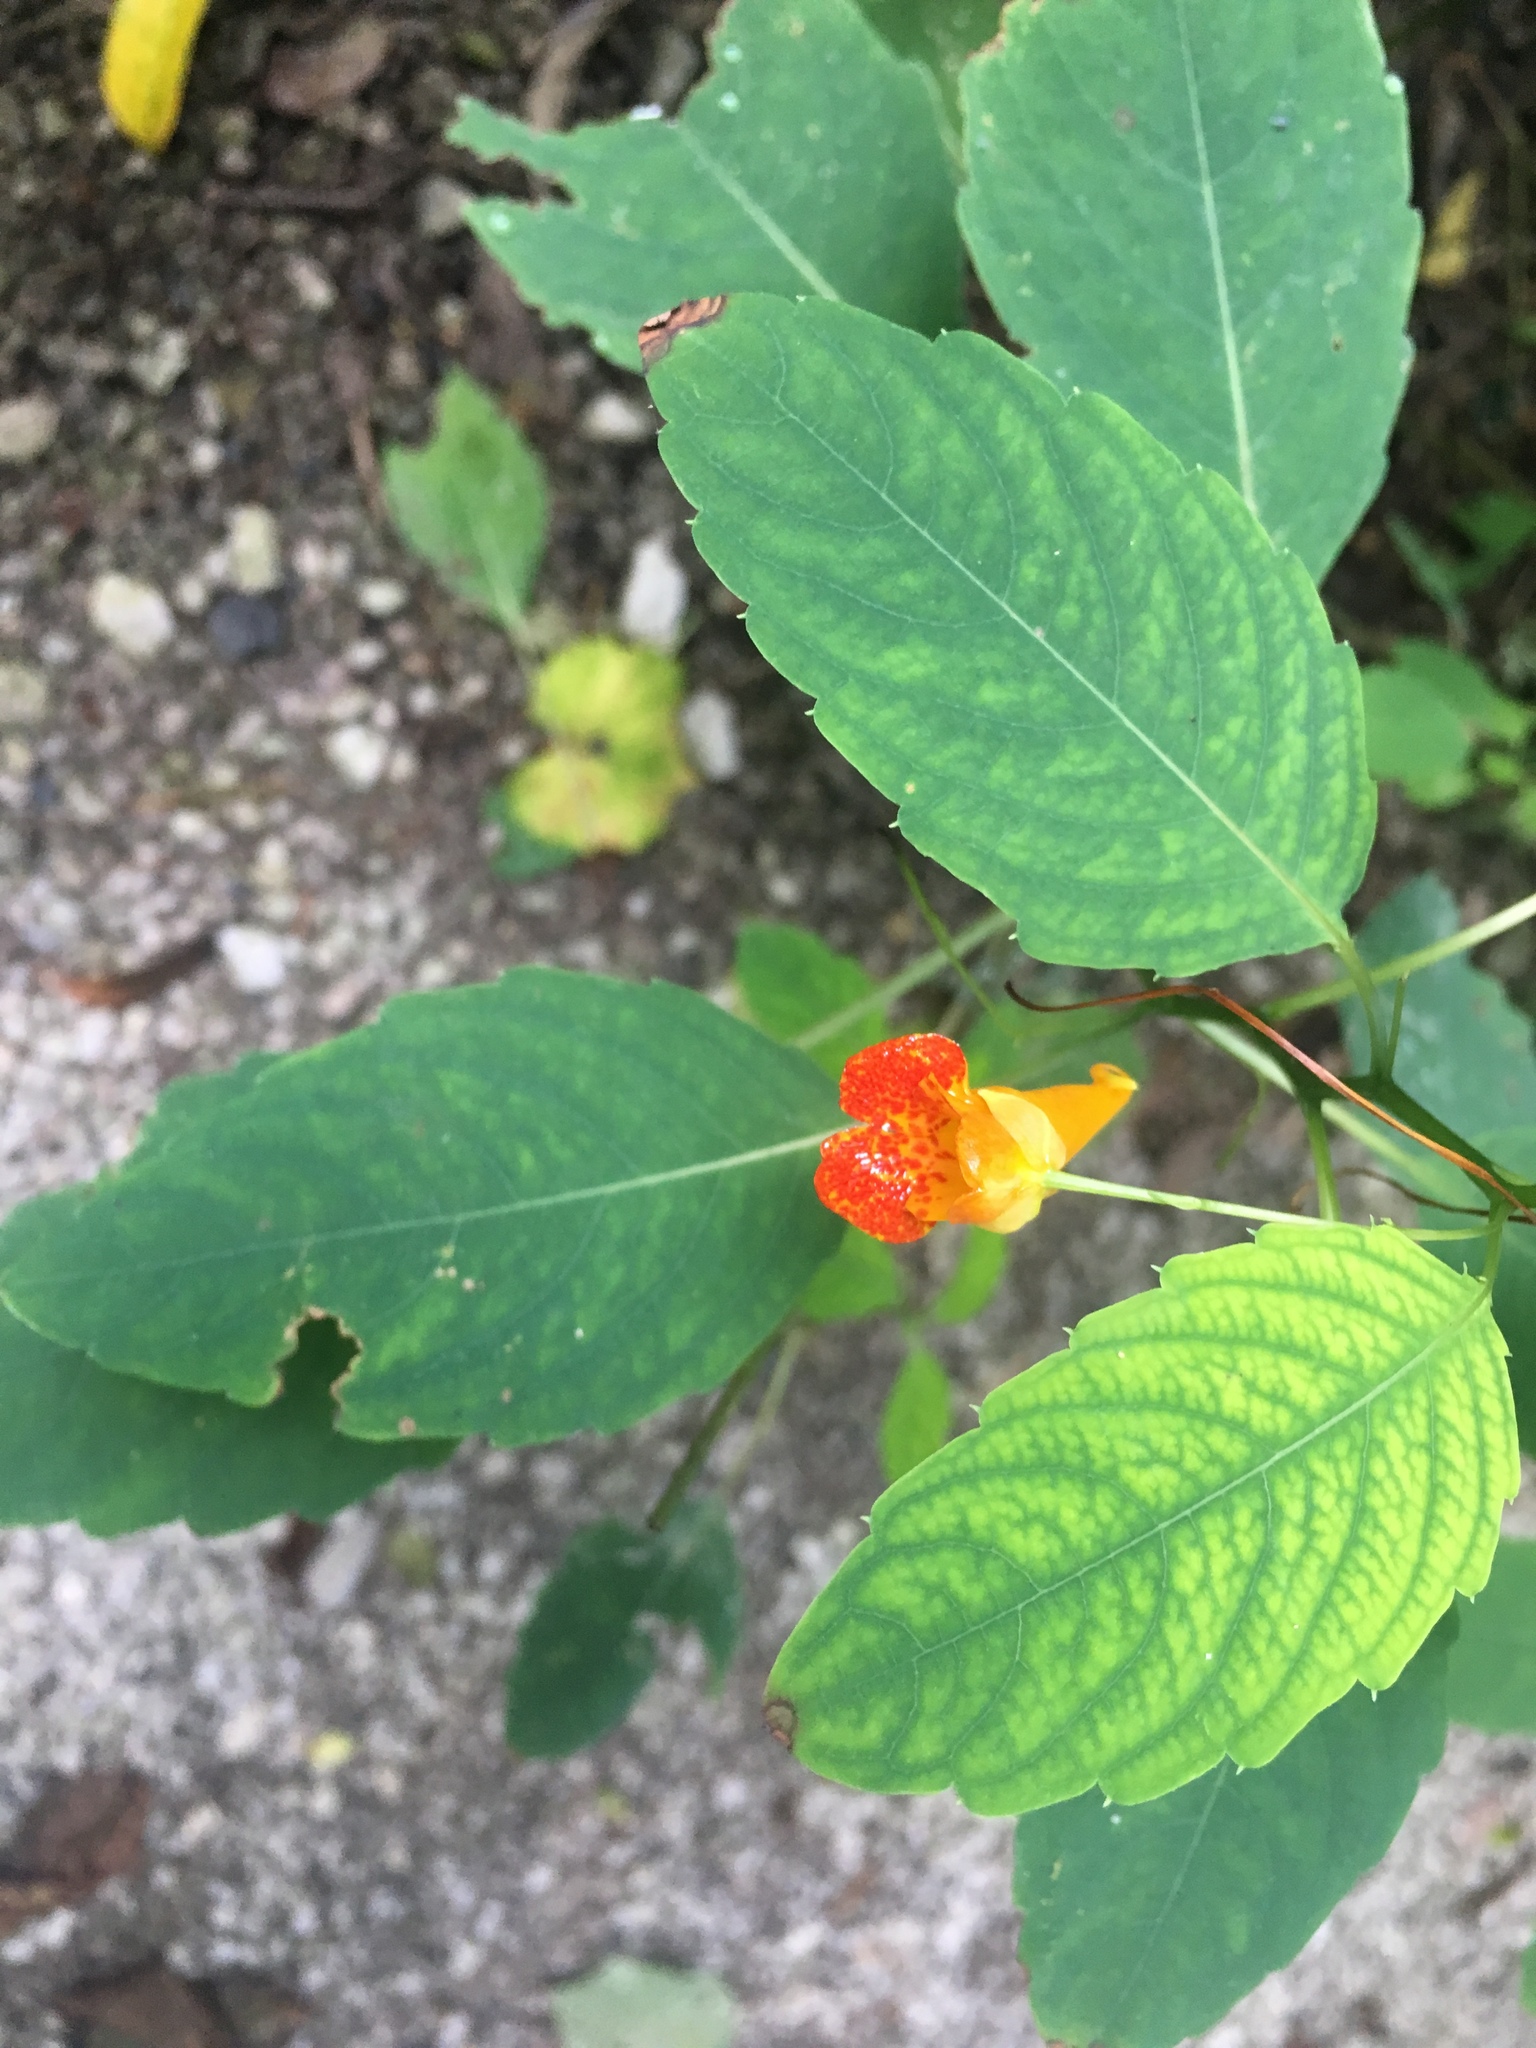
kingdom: Plantae
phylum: Tracheophyta
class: Magnoliopsida
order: Ericales
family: Balsaminaceae
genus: Impatiens
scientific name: Impatiens capensis
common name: Orange balsam
